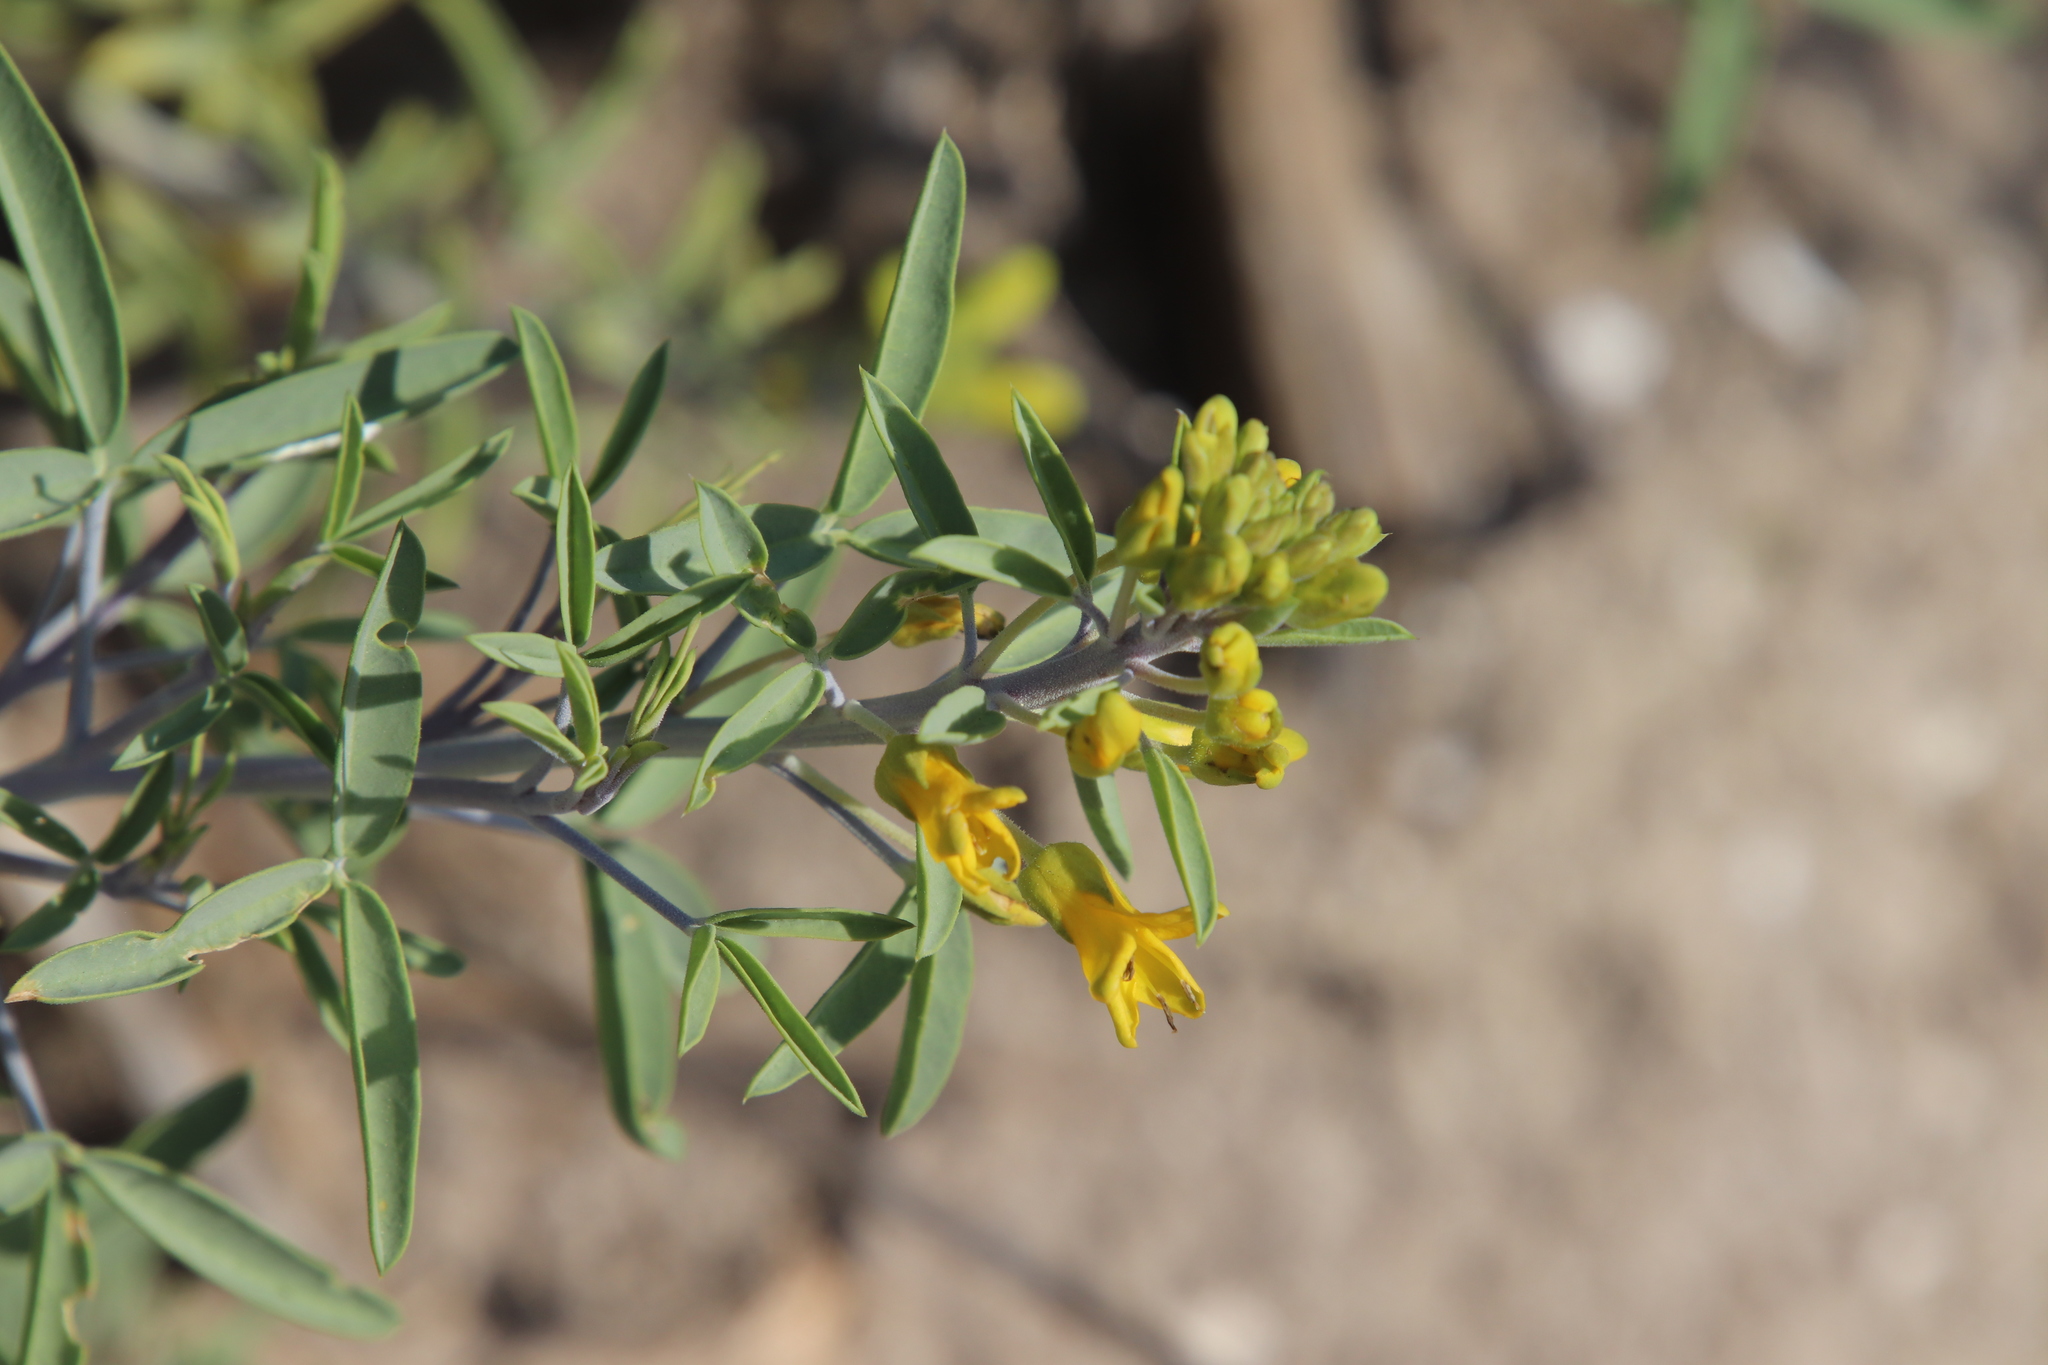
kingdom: Plantae
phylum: Tracheophyta
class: Magnoliopsida
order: Brassicales
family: Cleomaceae
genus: Cleomella
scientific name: Cleomella arborea
